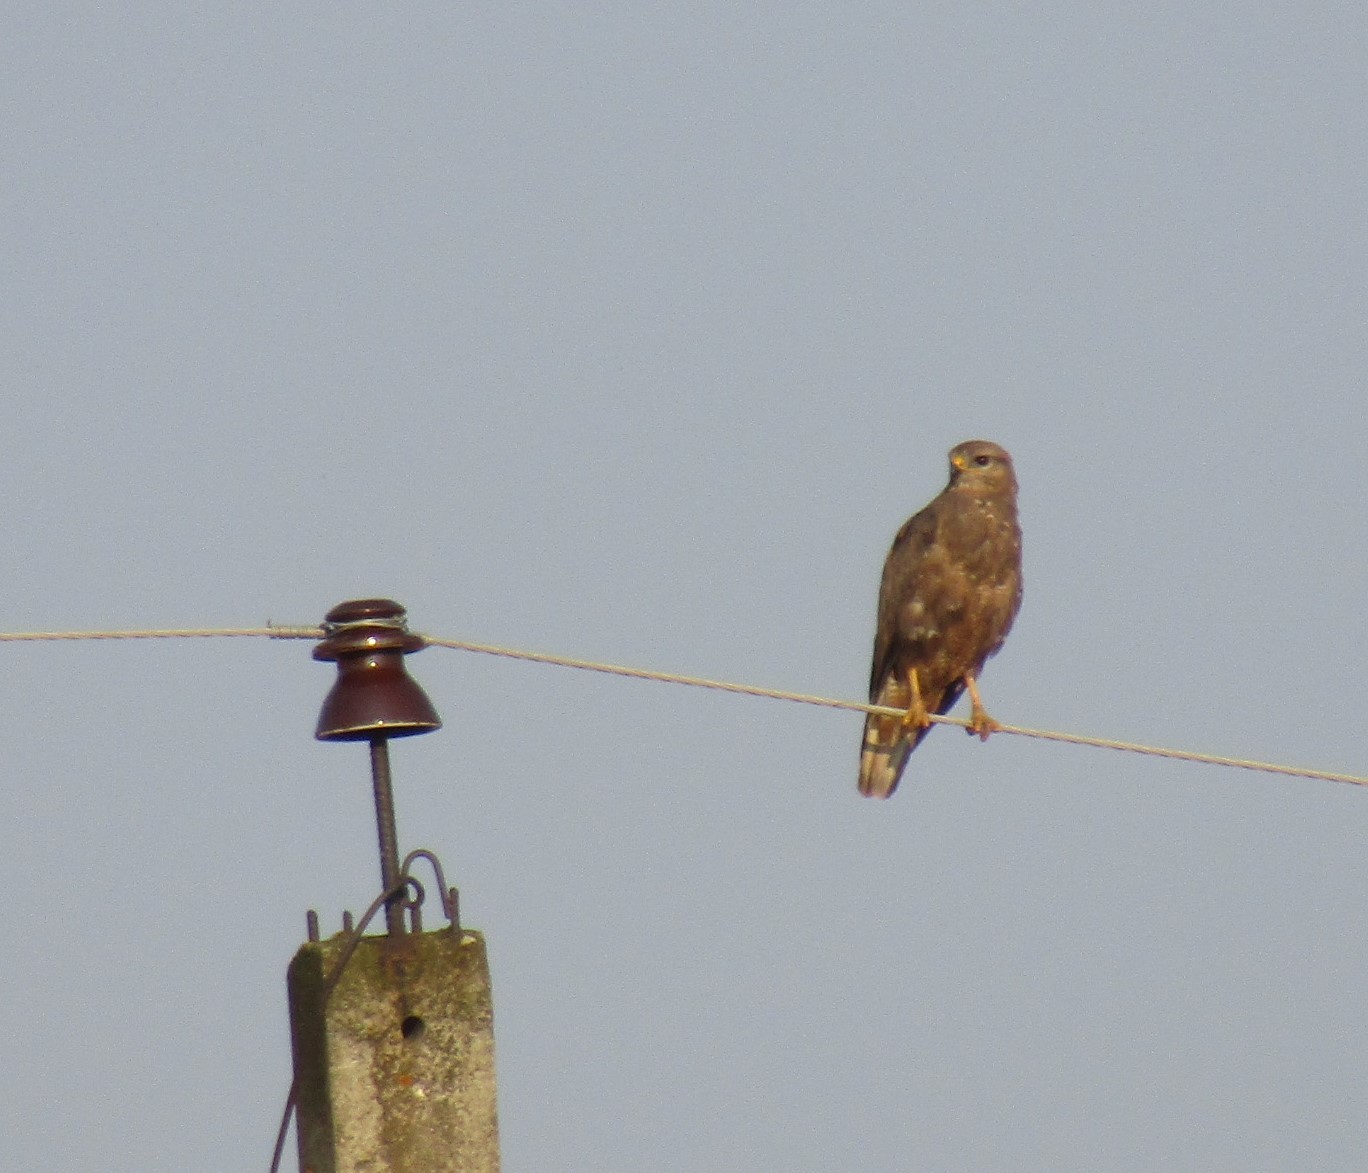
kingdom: Animalia
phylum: Chordata
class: Aves
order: Accipitriformes
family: Accipitridae
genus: Buteo
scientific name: Buteo buteo
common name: Common buzzard
